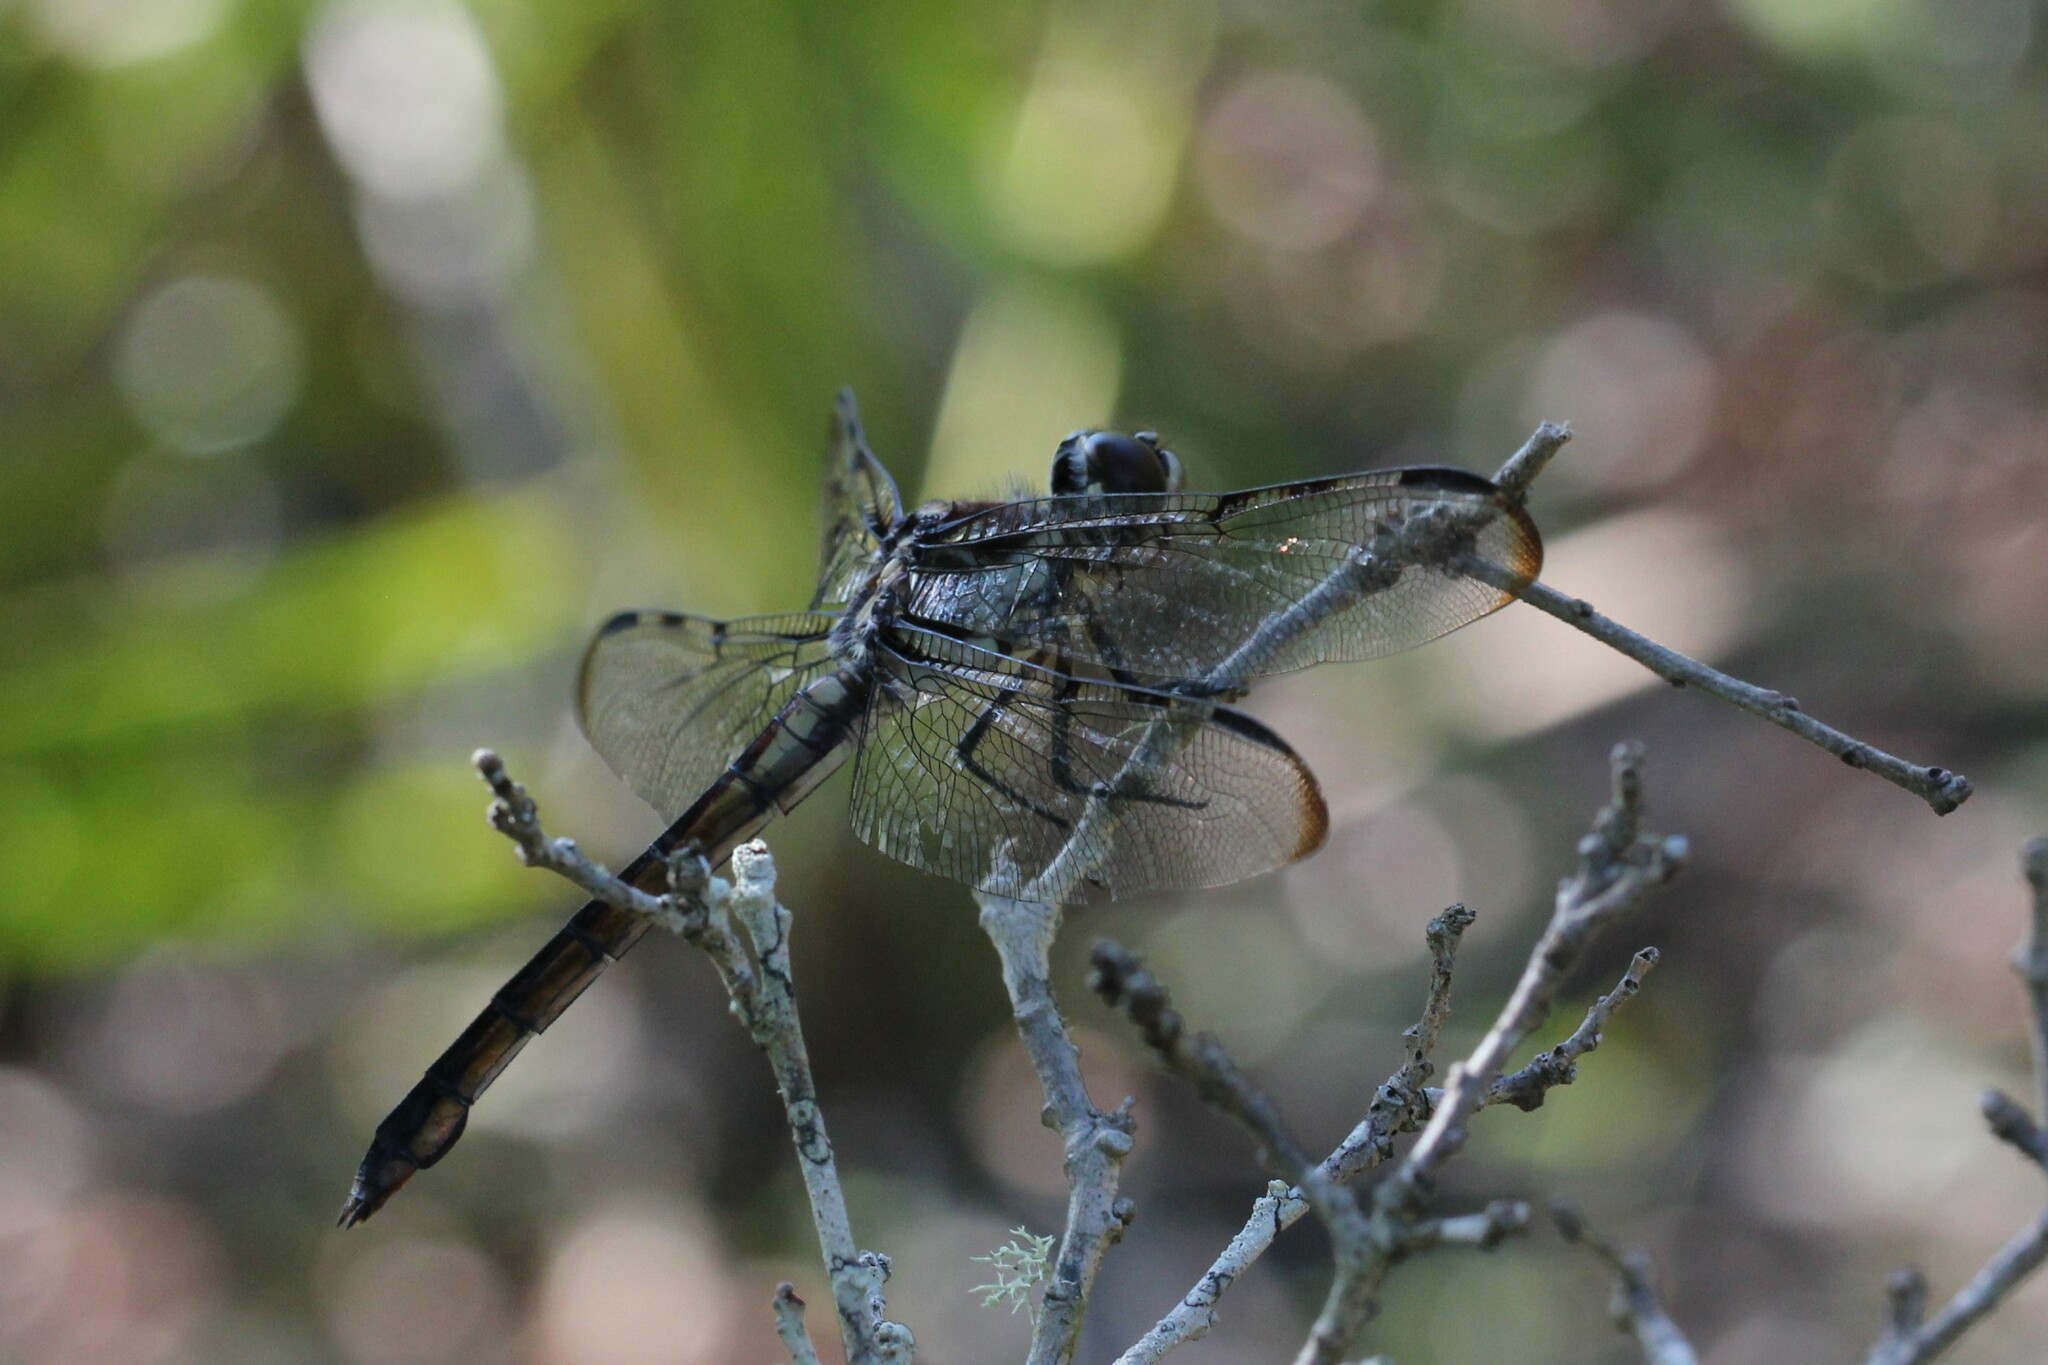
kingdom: Animalia
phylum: Arthropoda
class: Insecta
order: Odonata
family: Libellulidae
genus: Libellula
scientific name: Libellula axilena
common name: Bar-winged skimmer
